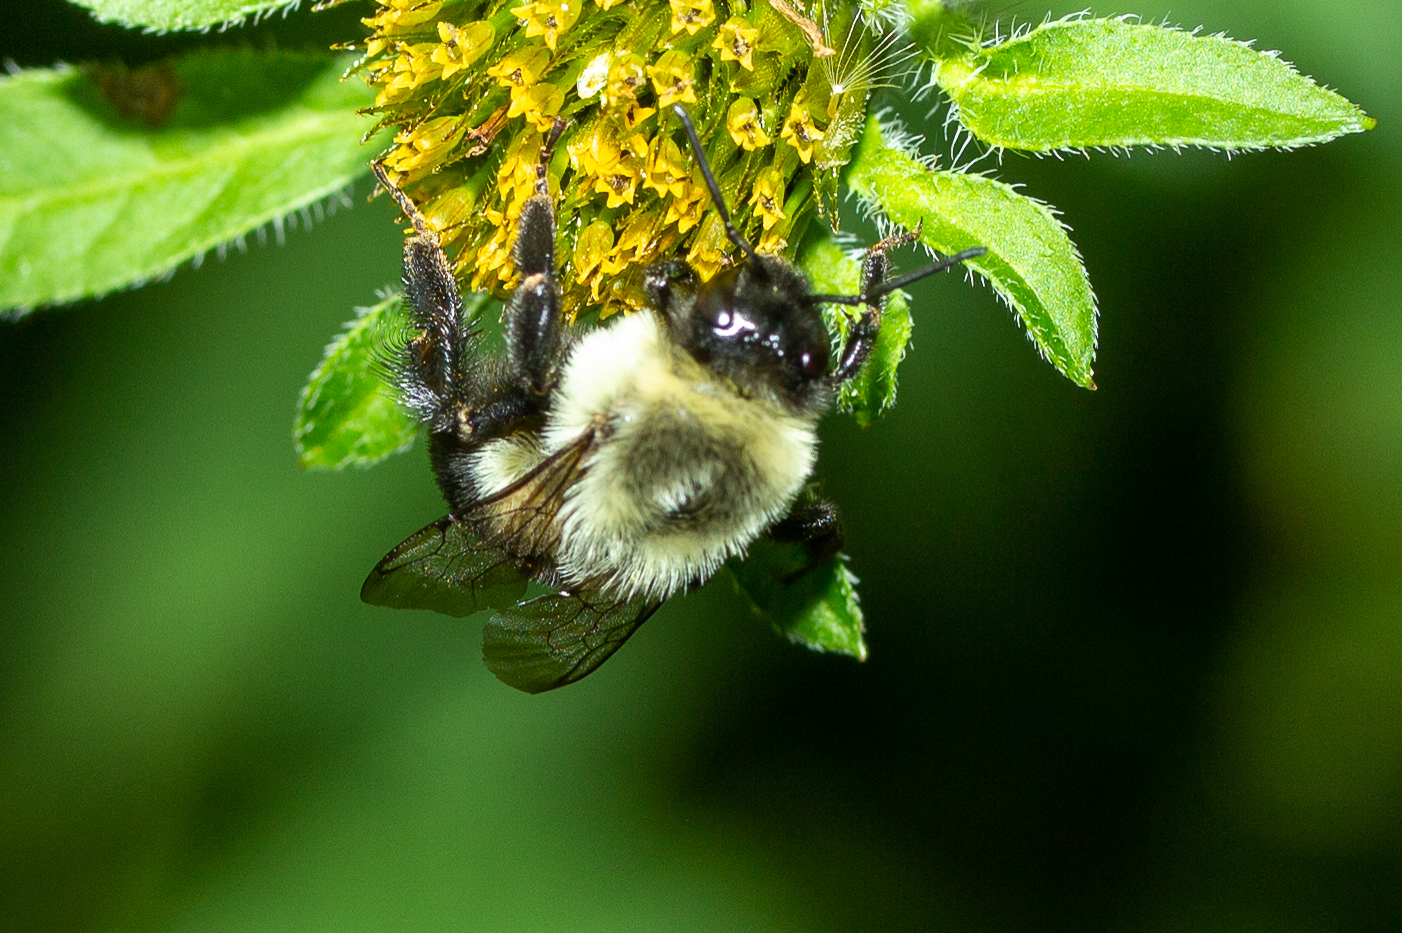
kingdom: Animalia
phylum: Arthropoda
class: Insecta
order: Hymenoptera
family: Apidae
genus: Bombus
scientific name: Bombus impatiens
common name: Common eastern bumble bee
